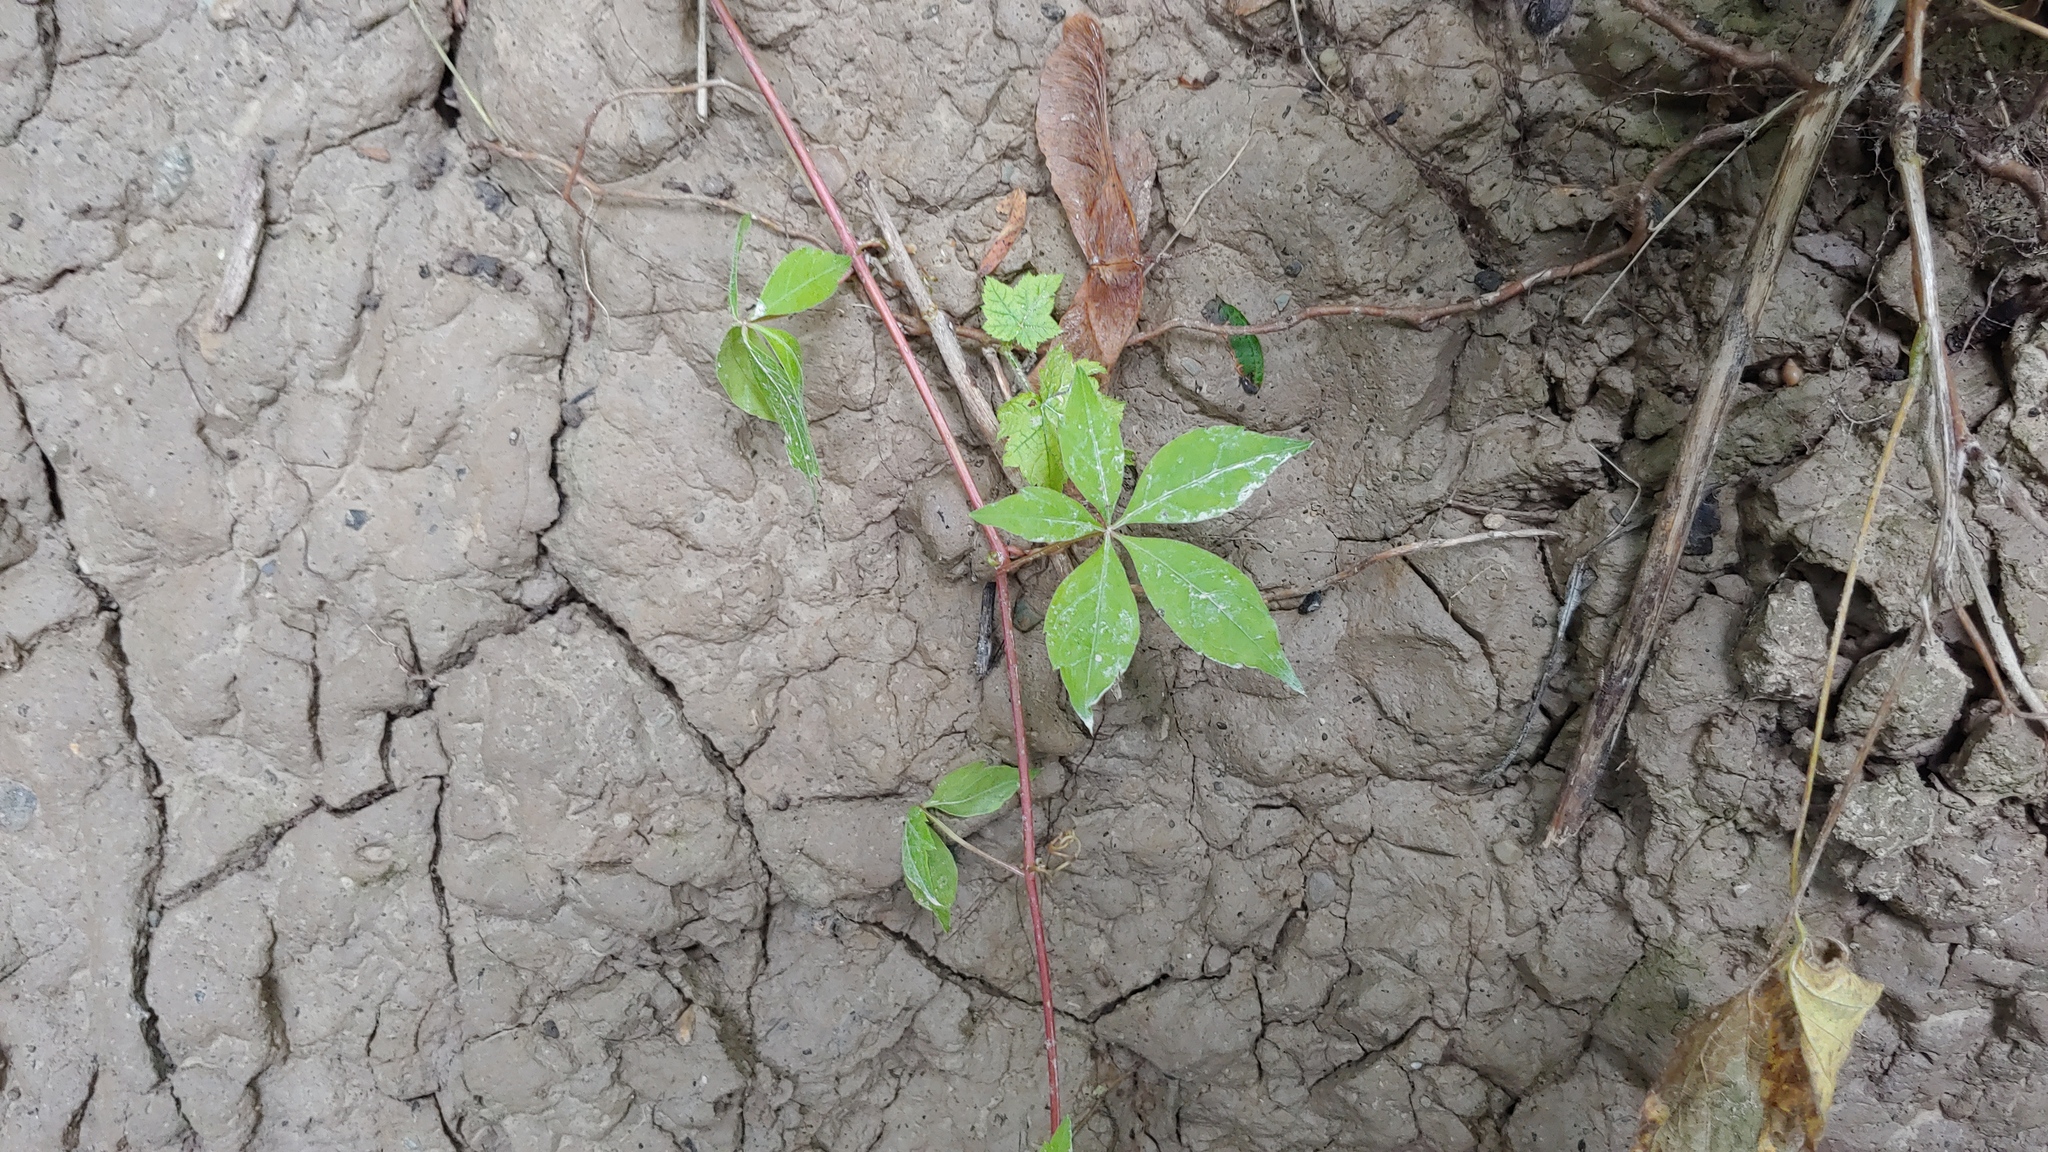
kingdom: Plantae
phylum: Tracheophyta
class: Magnoliopsida
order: Vitales
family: Vitaceae
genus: Parthenocissus
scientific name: Parthenocissus quinquefolia
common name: Virginia-creeper
